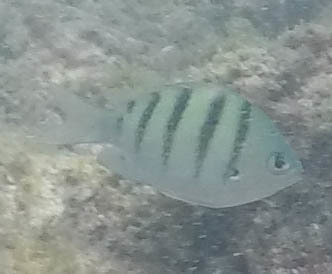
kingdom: Animalia
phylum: Chordata
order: Perciformes
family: Pomacentridae
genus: Abudefduf
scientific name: Abudefduf abdominalis
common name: Green damselfish
